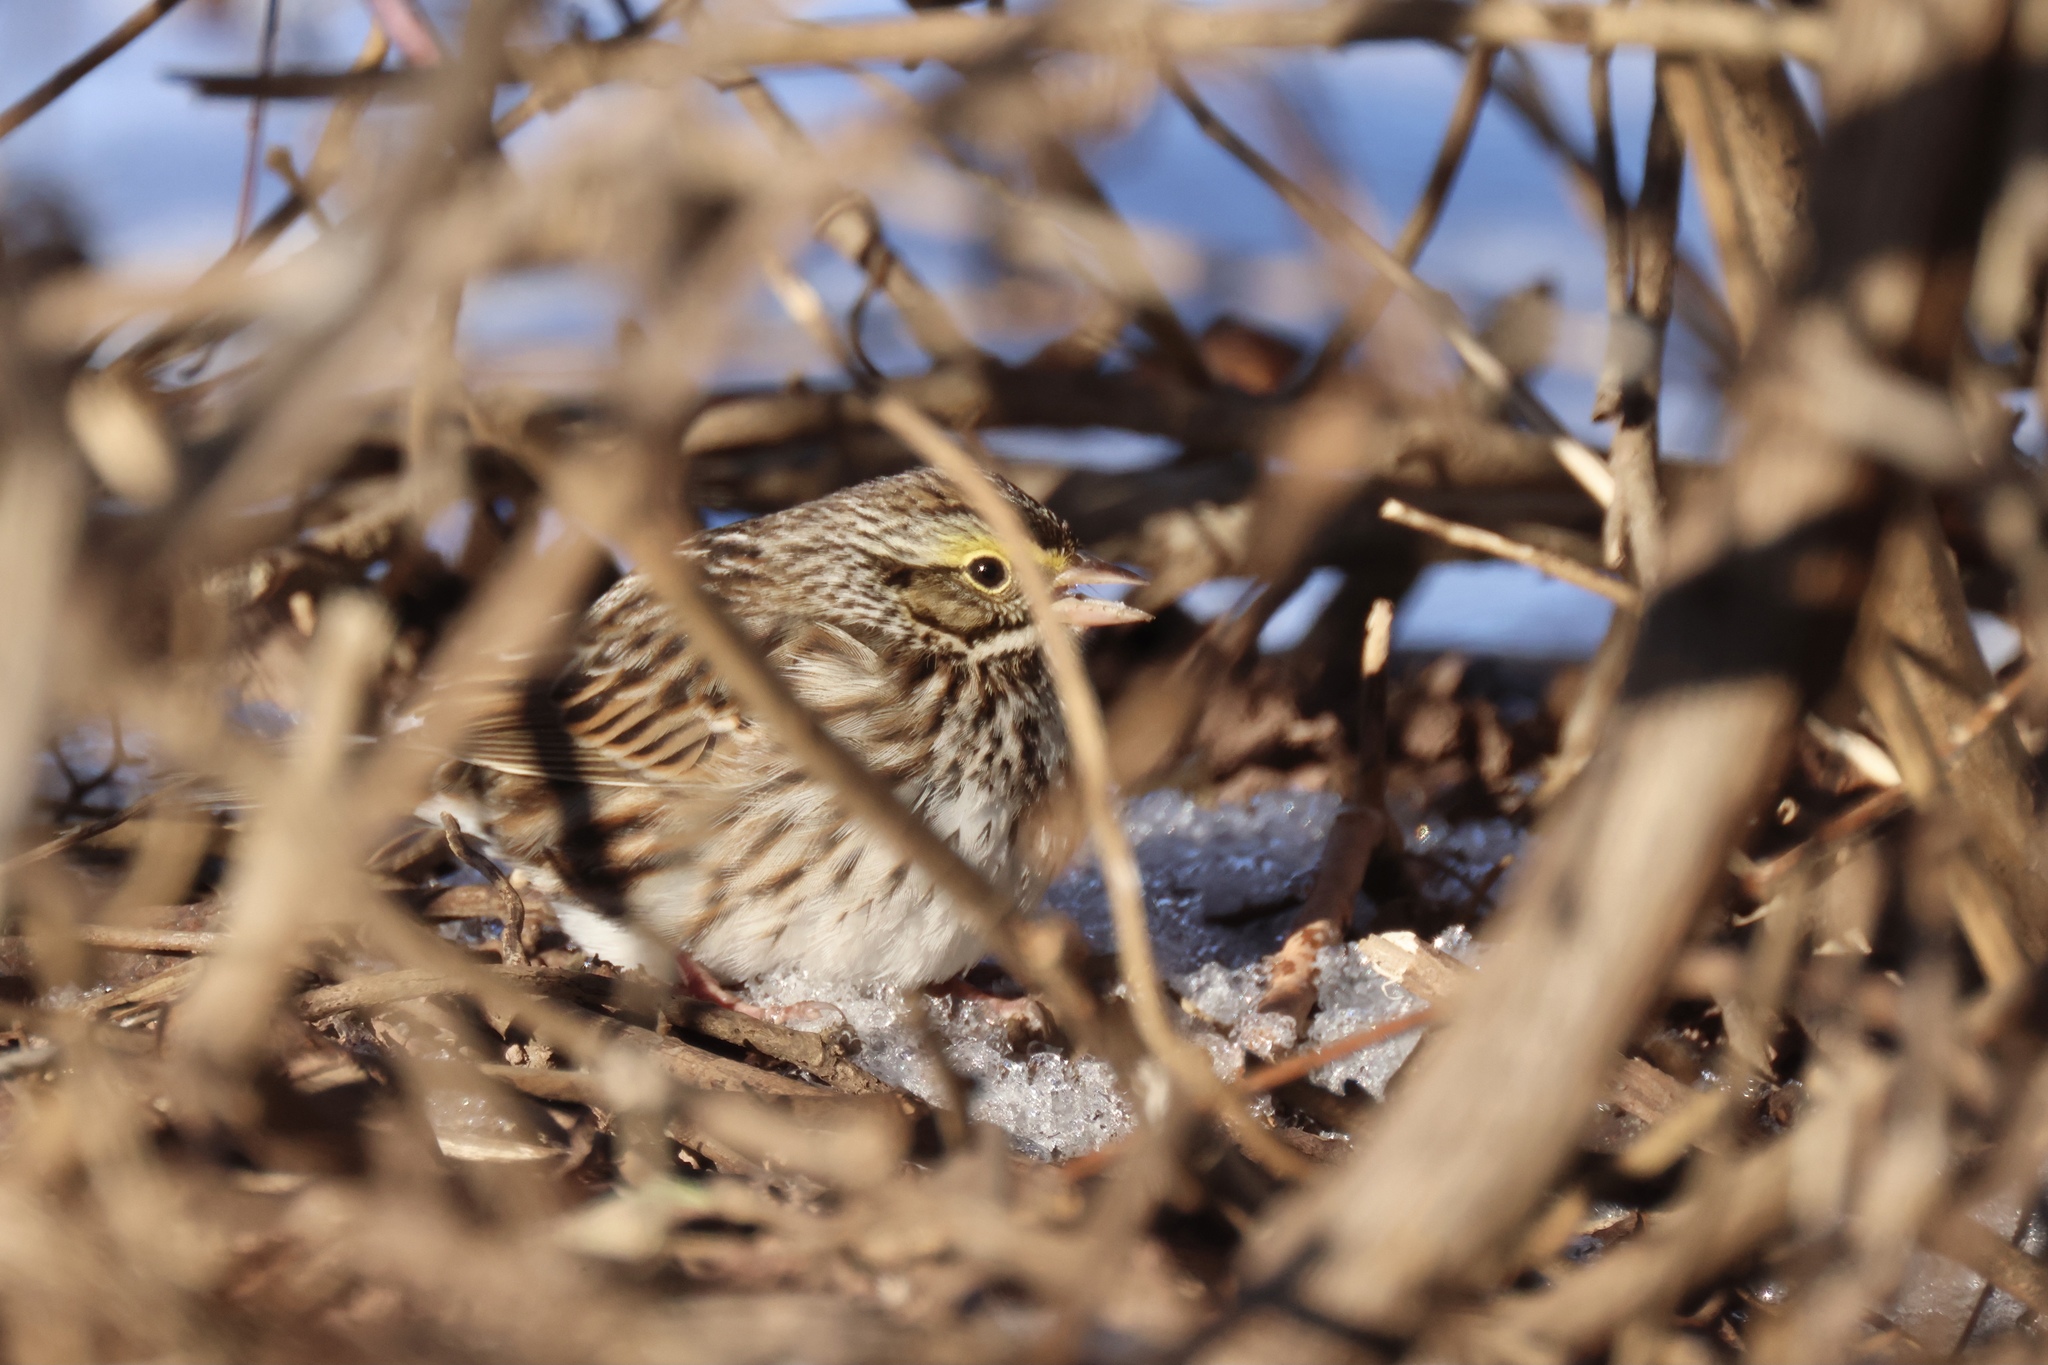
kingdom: Animalia
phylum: Chordata
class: Aves
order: Passeriformes
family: Passerellidae
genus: Passerculus
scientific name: Passerculus sandwichensis
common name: Savannah sparrow
